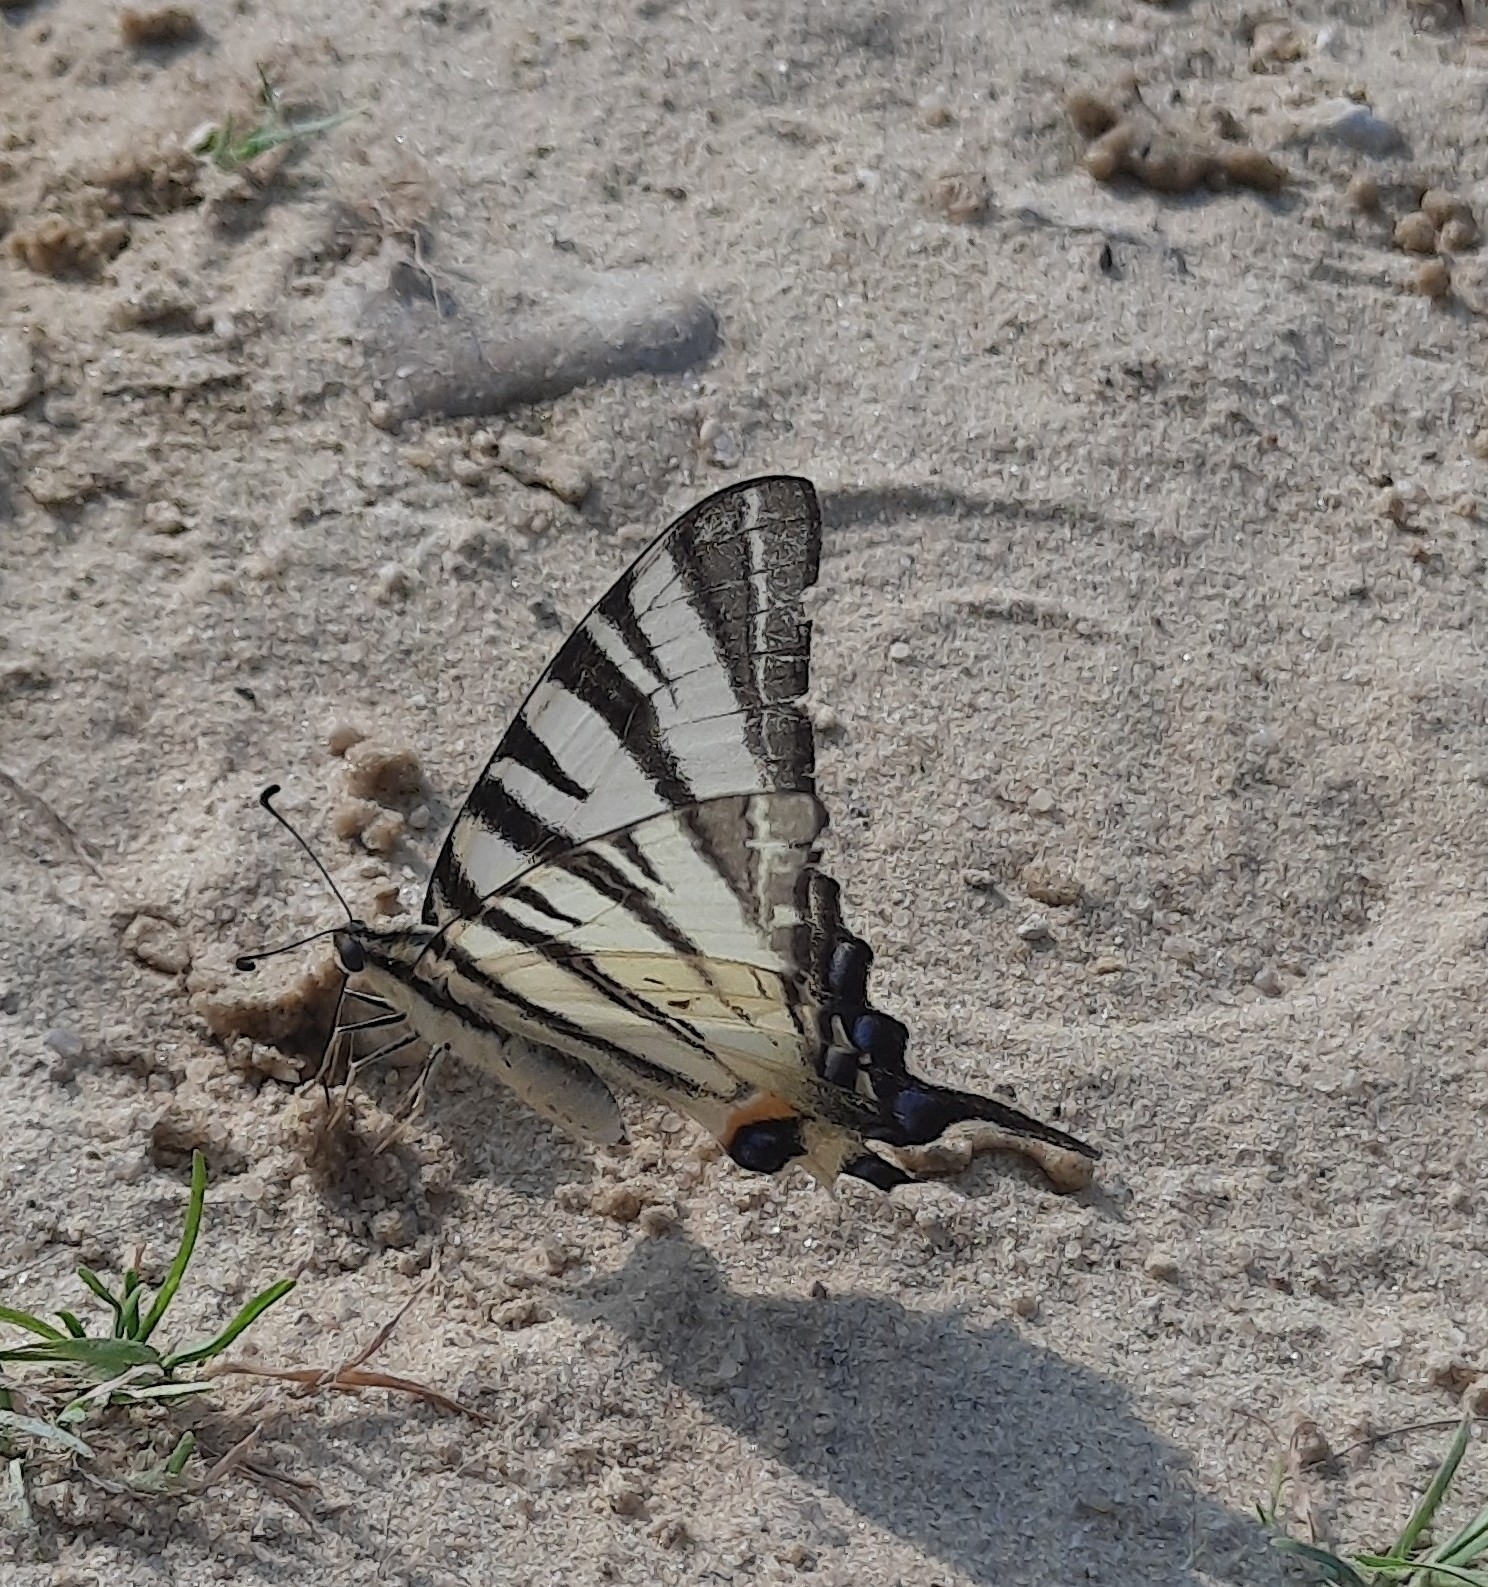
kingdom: Animalia
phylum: Arthropoda
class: Insecta
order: Lepidoptera
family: Papilionidae
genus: Iphiclides
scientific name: Iphiclides podalirius
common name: Scarce swallowtail
